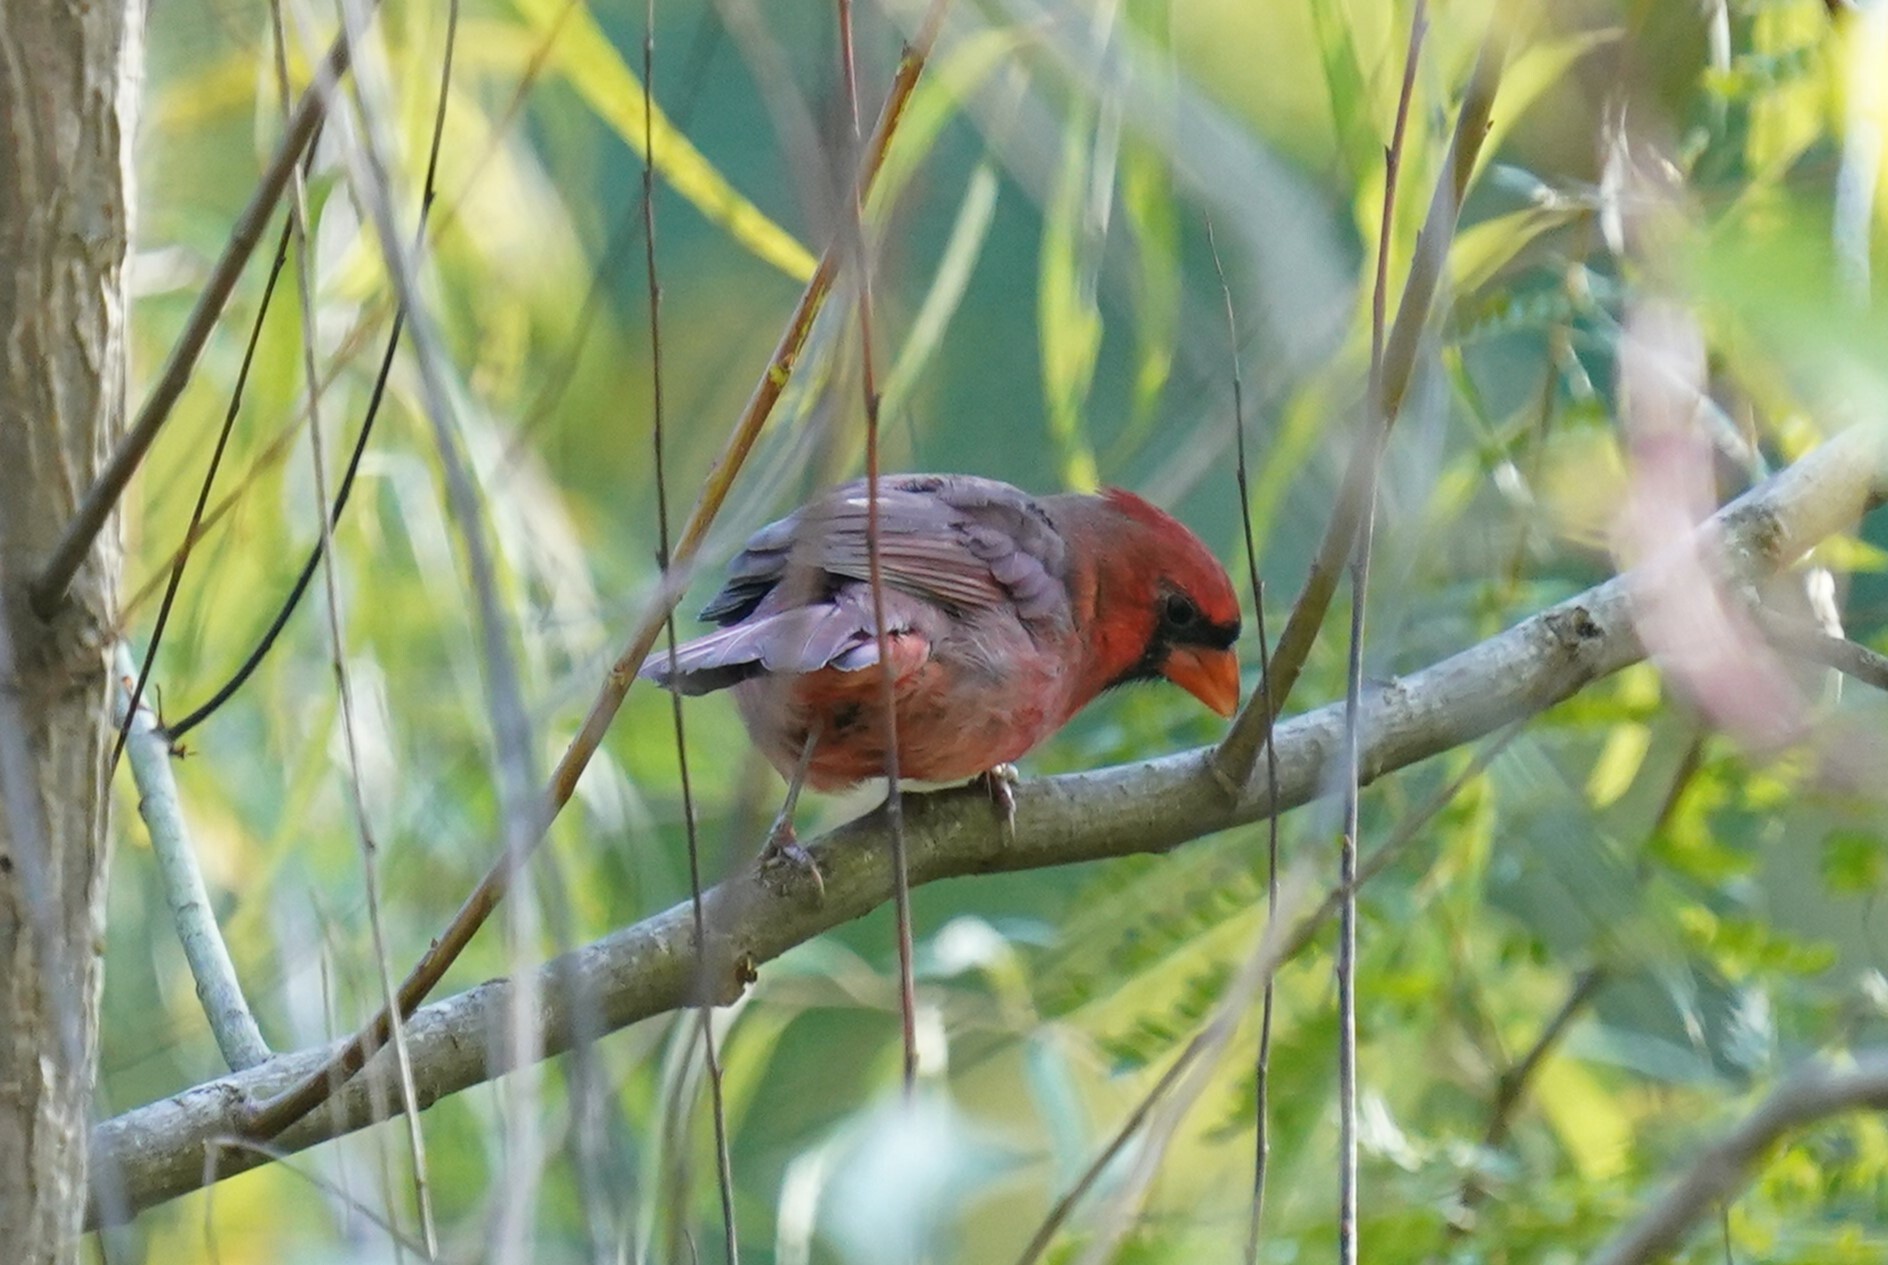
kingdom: Animalia
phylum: Chordata
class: Aves
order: Passeriformes
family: Cardinalidae
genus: Cardinalis
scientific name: Cardinalis cardinalis
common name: Northern cardinal
